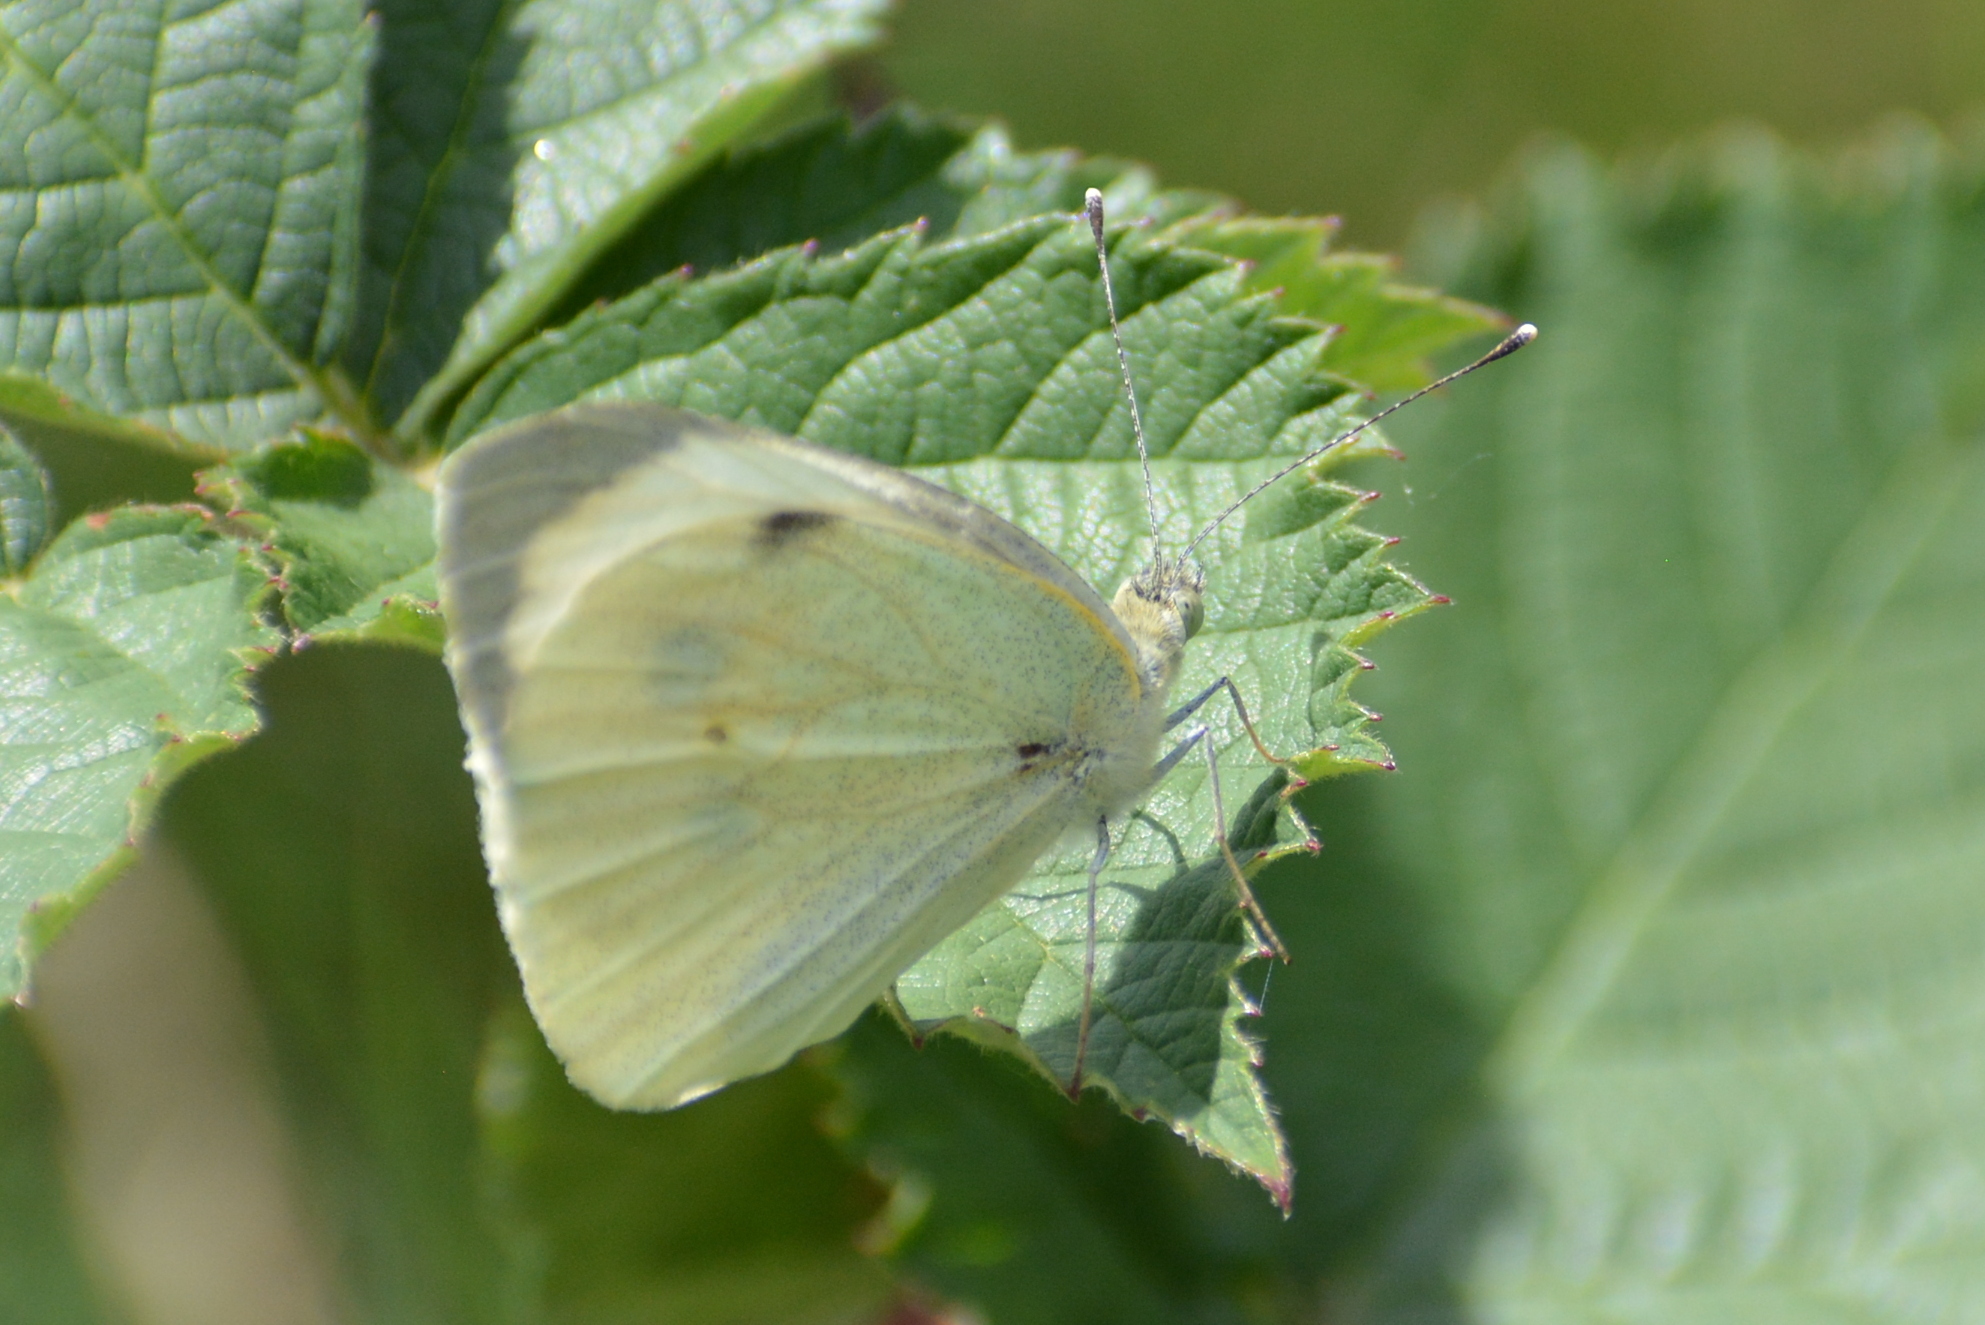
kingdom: Animalia
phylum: Arthropoda
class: Insecta
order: Lepidoptera
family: Pieridae
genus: Pieris
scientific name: Pieris brassicae
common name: Large white
